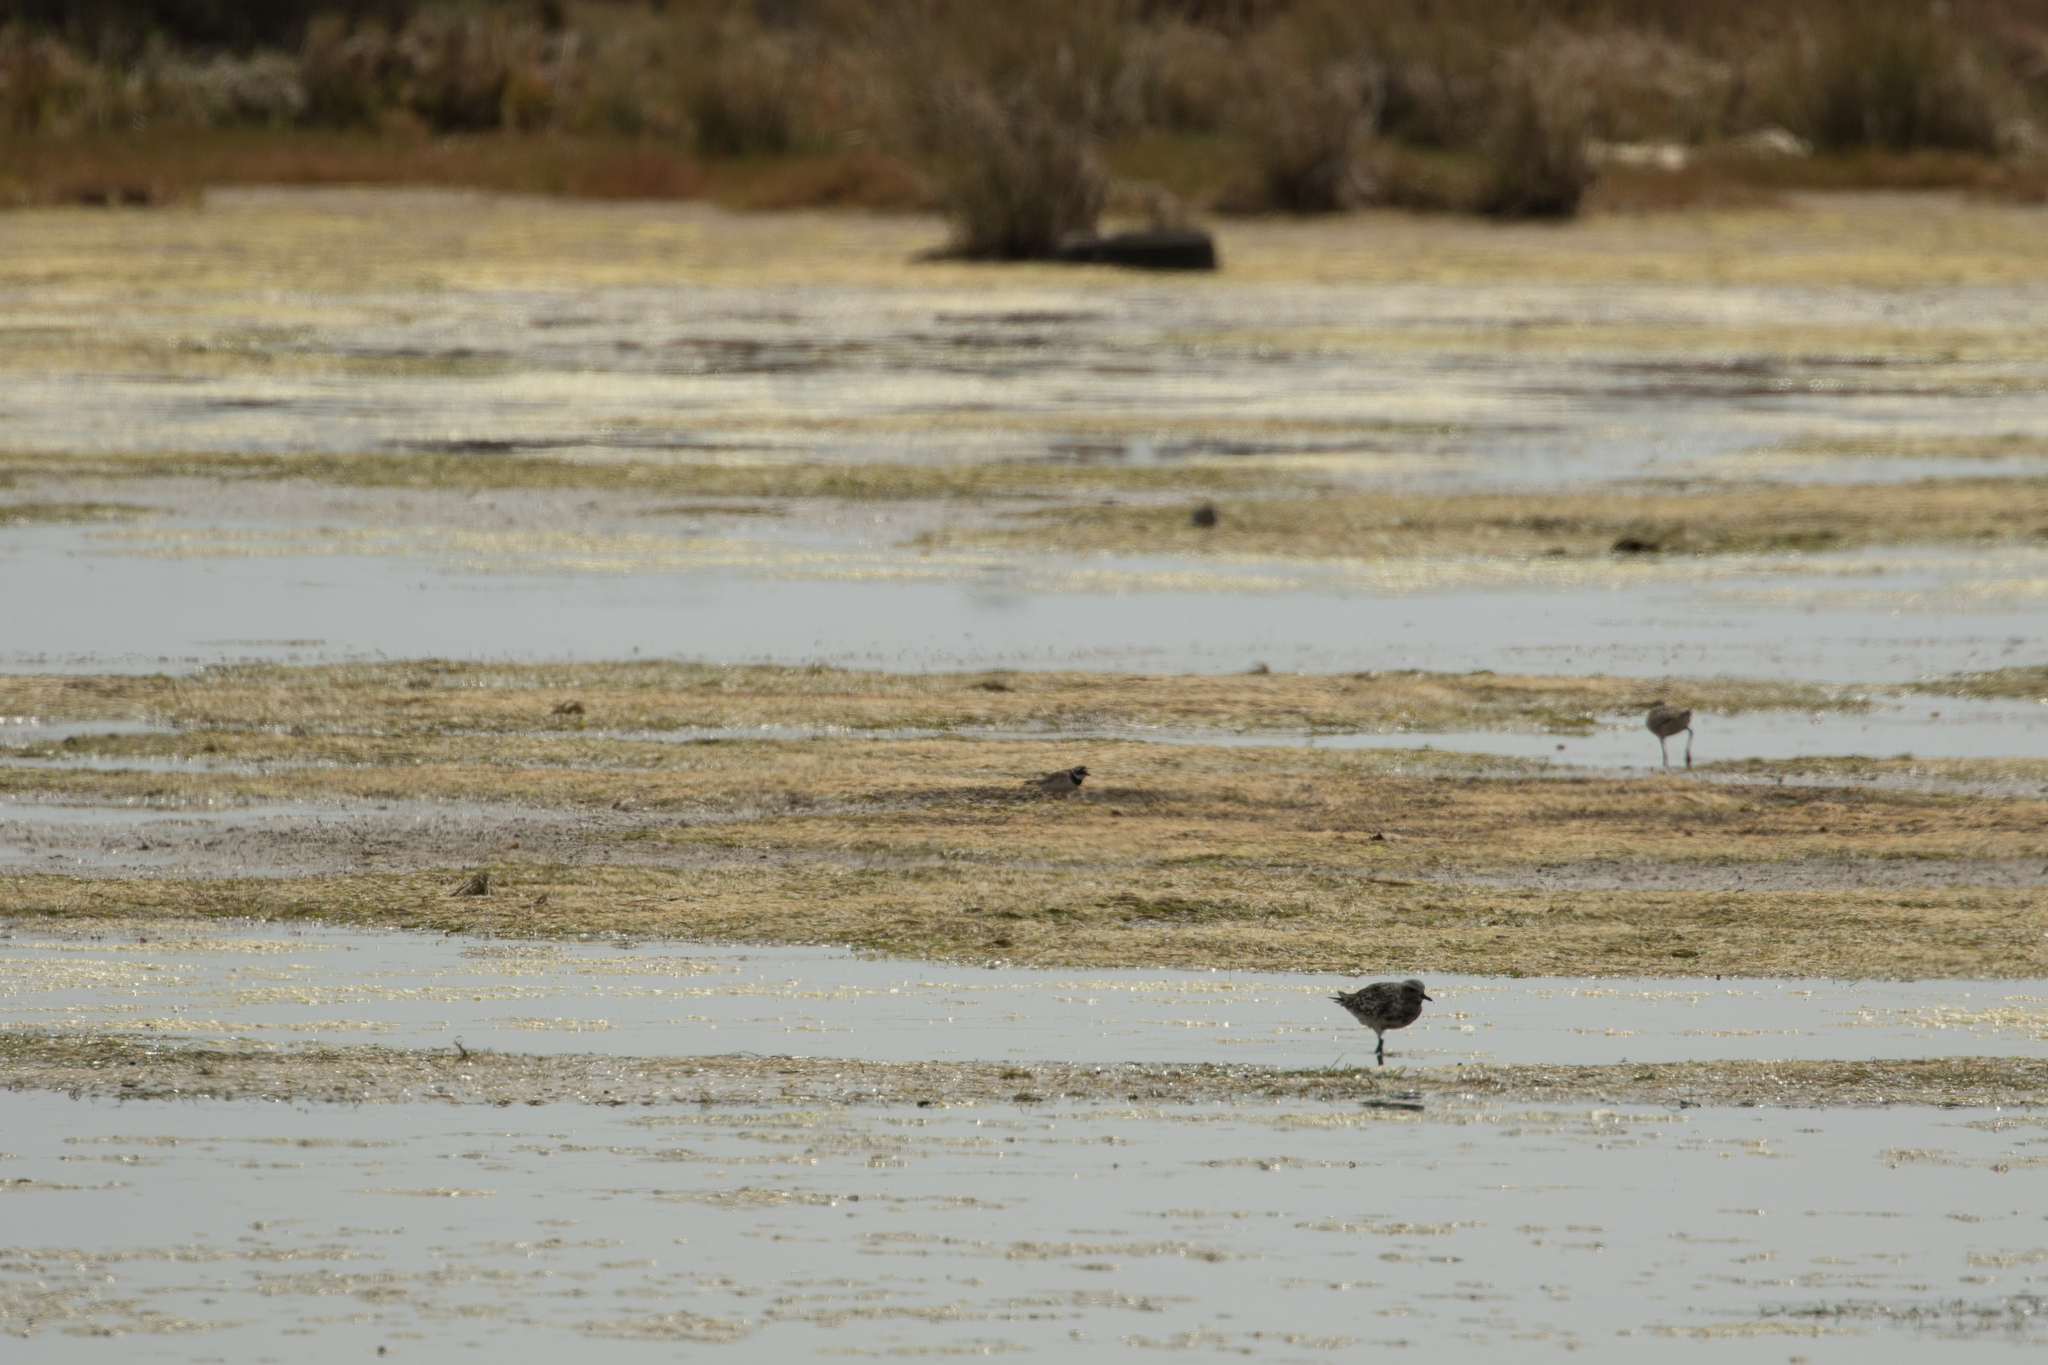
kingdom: Animalia
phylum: Chordata
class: Aves
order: Charadriiformes
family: Charadriidae
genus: Charadrius
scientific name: Charadrius hiaticula
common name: Common ringed plover
